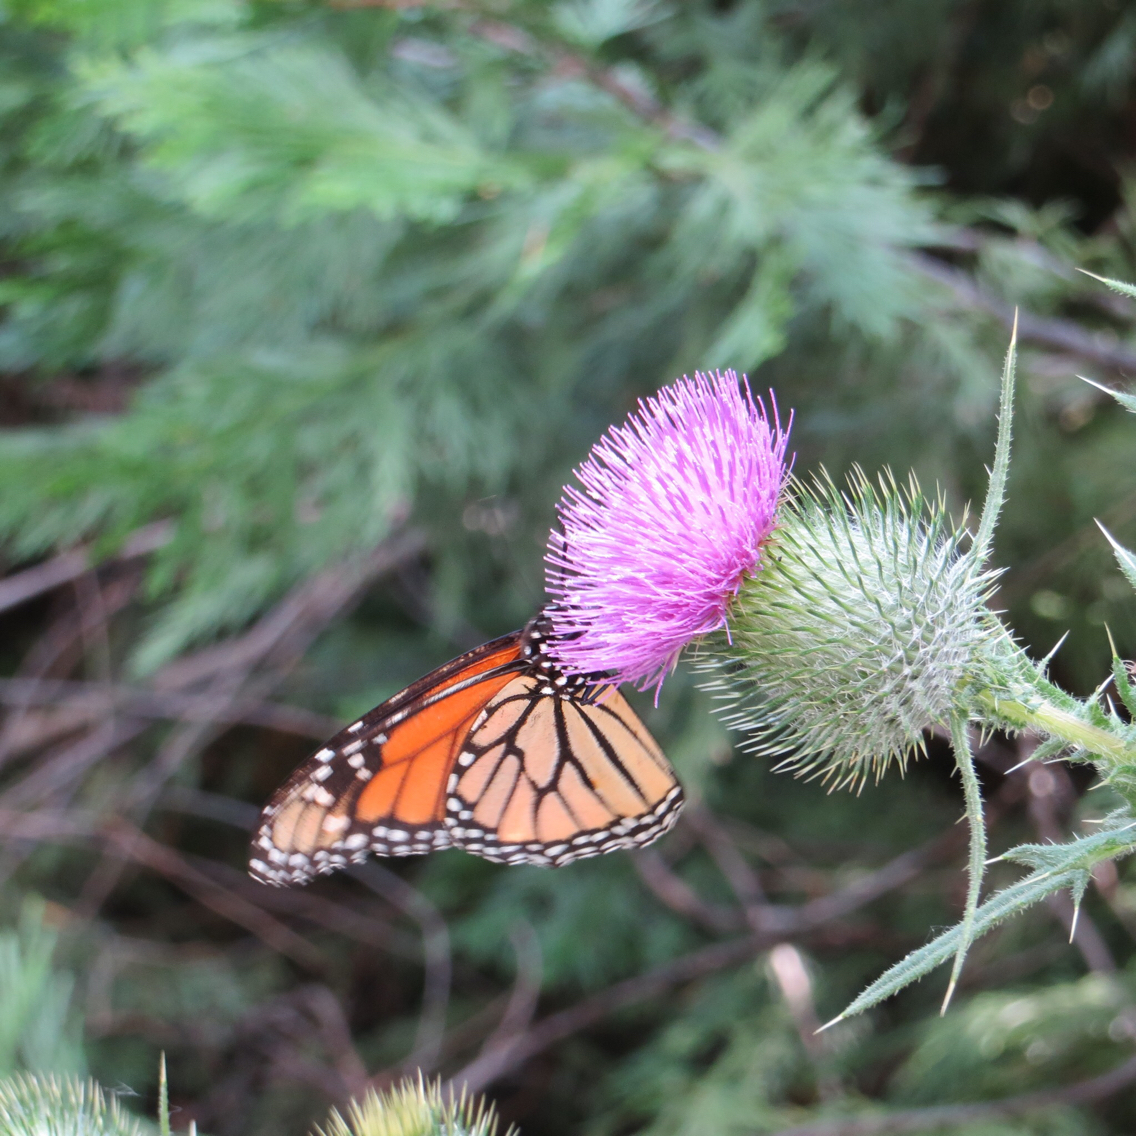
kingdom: Animalia
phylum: Arthropoda
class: Insecta
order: Lepidoptera
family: Nymphalidae
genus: Danaus
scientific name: Danaus plexippus
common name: Monarch
